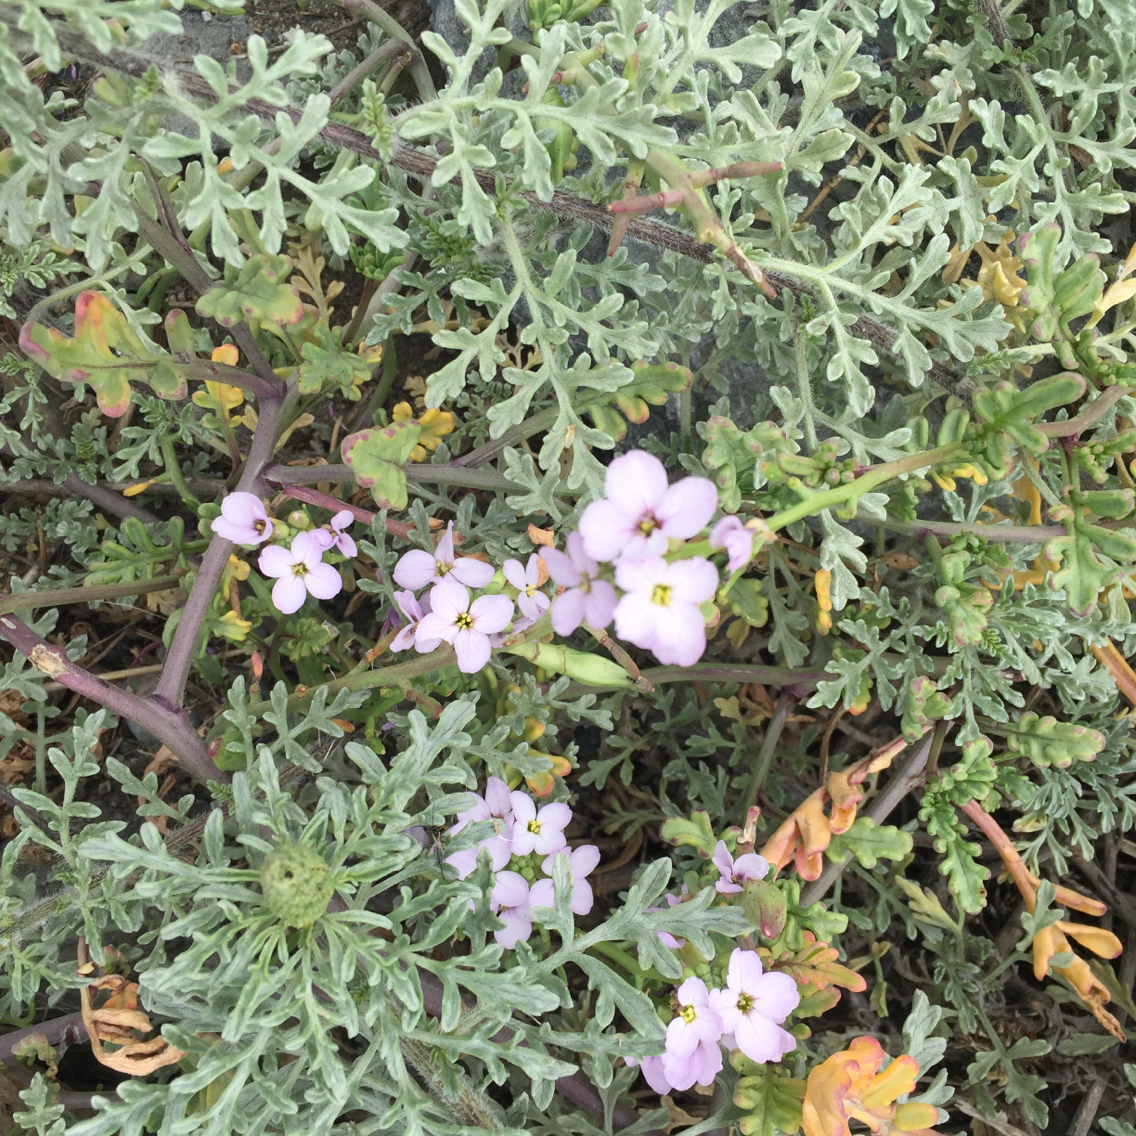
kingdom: Plantae
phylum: Tracheophyta
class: Magnoliopsida
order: Brassicales
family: Brassicaceae
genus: Cakile
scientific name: Cakile maritima
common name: Sea rocket
